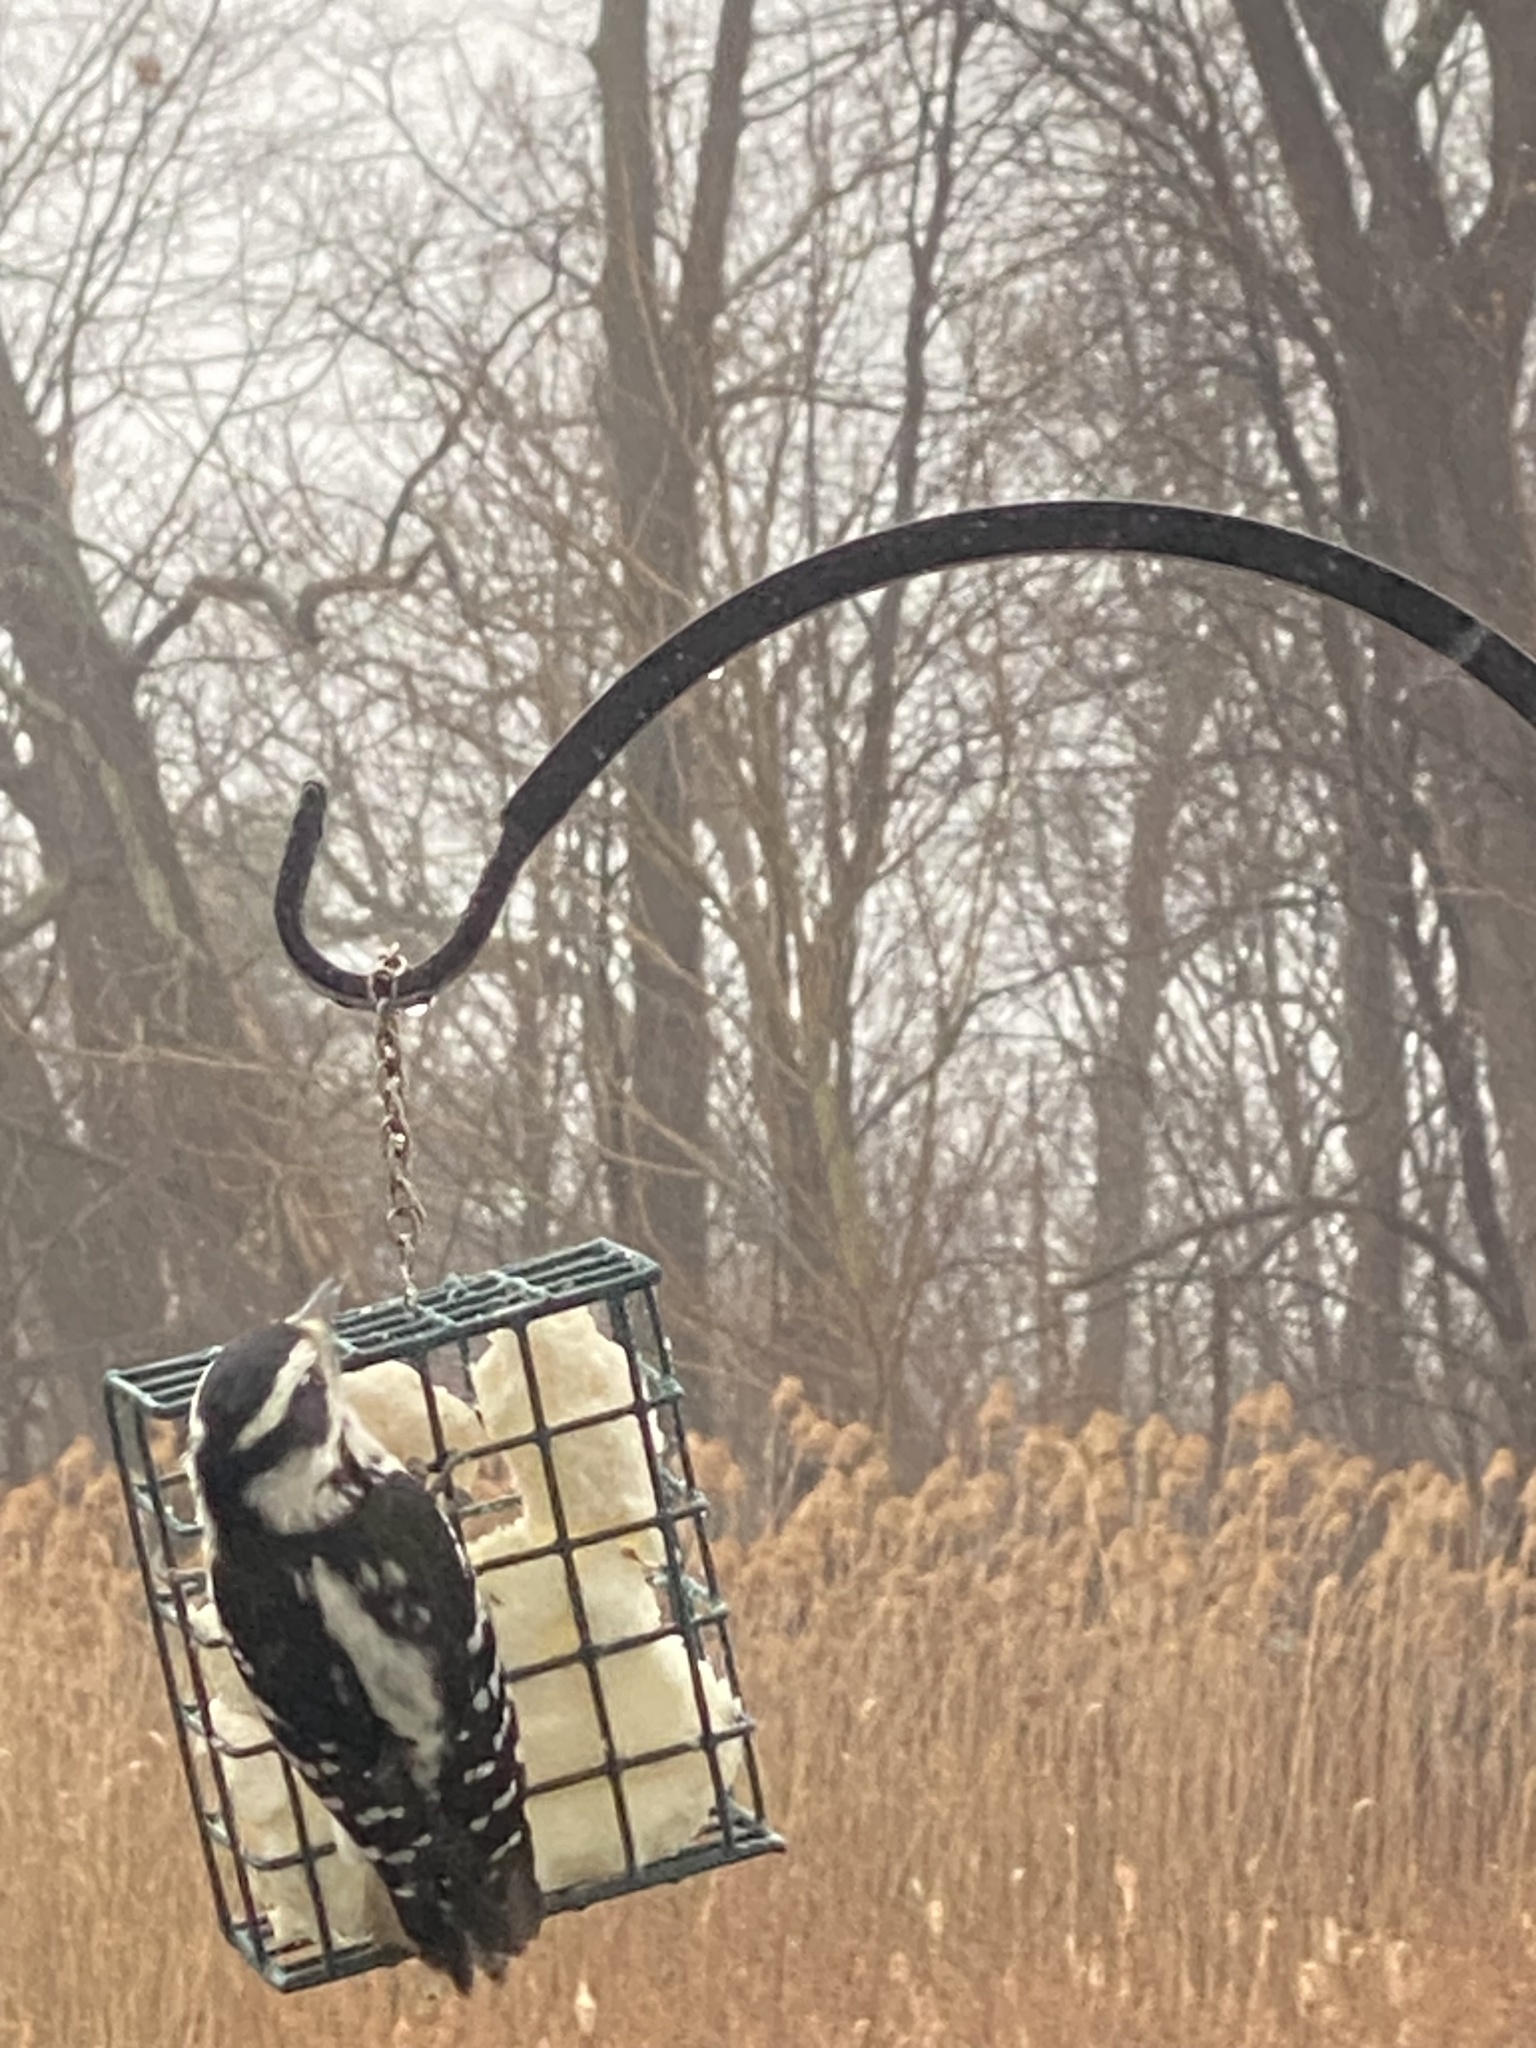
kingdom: Animalia
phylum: Chordata
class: Aves
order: Piciformes
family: Picidae
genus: Leuconotopicus
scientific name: Leuconotopicus villosus
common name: Hairy woodpecker
